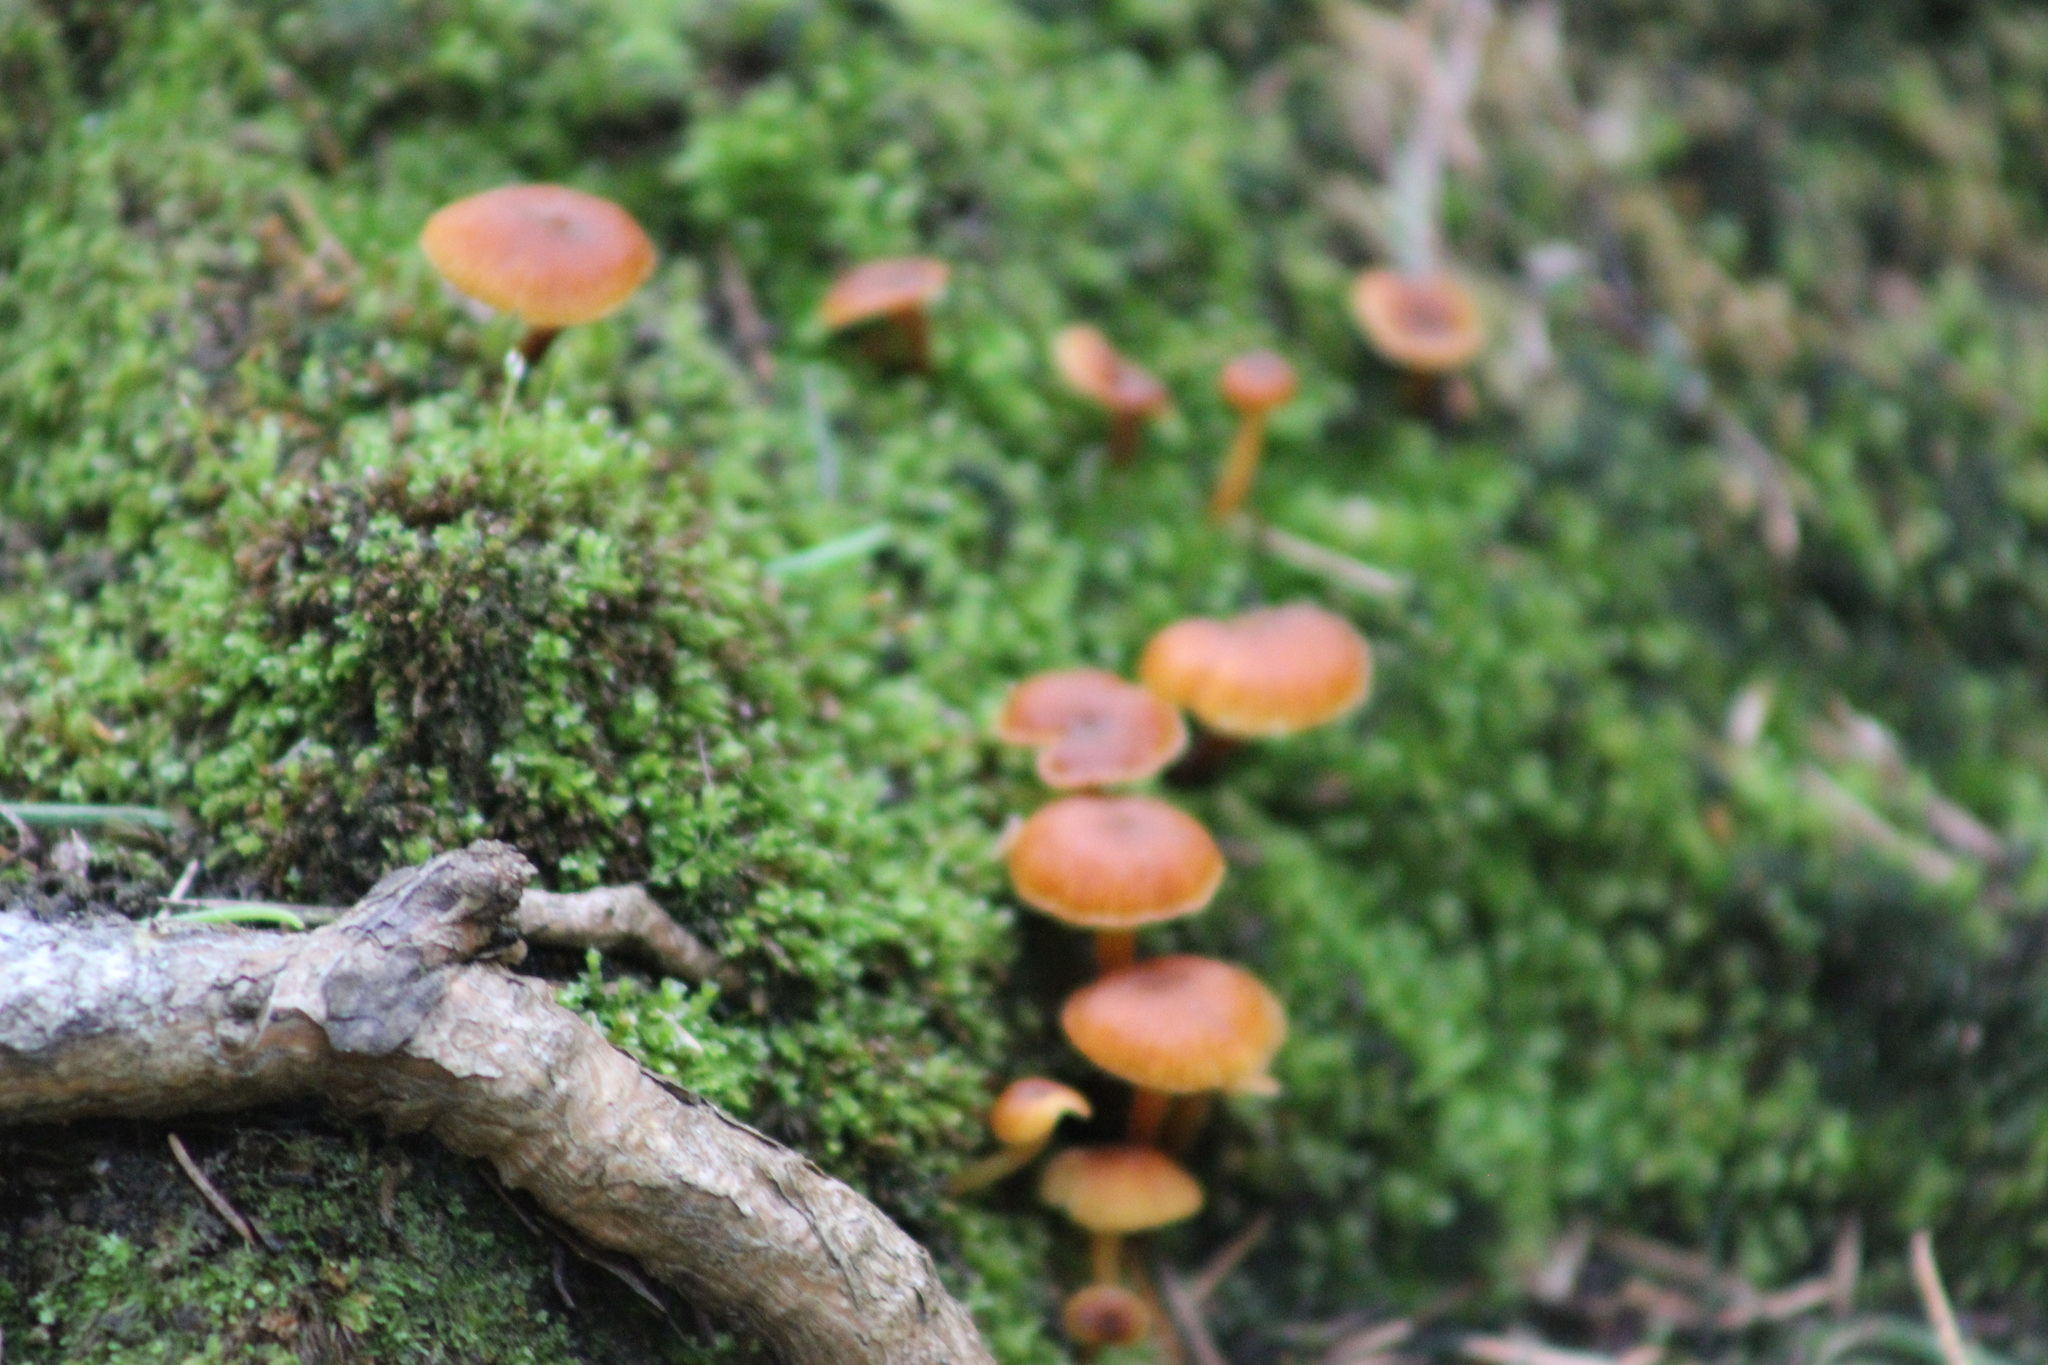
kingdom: Fungi
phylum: Basidiomycota
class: Agaricomycetes
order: Agaricales
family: Mycenaceae
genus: Xeromphalina
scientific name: Xeromphalina campanella
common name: Pinewood gingertail
